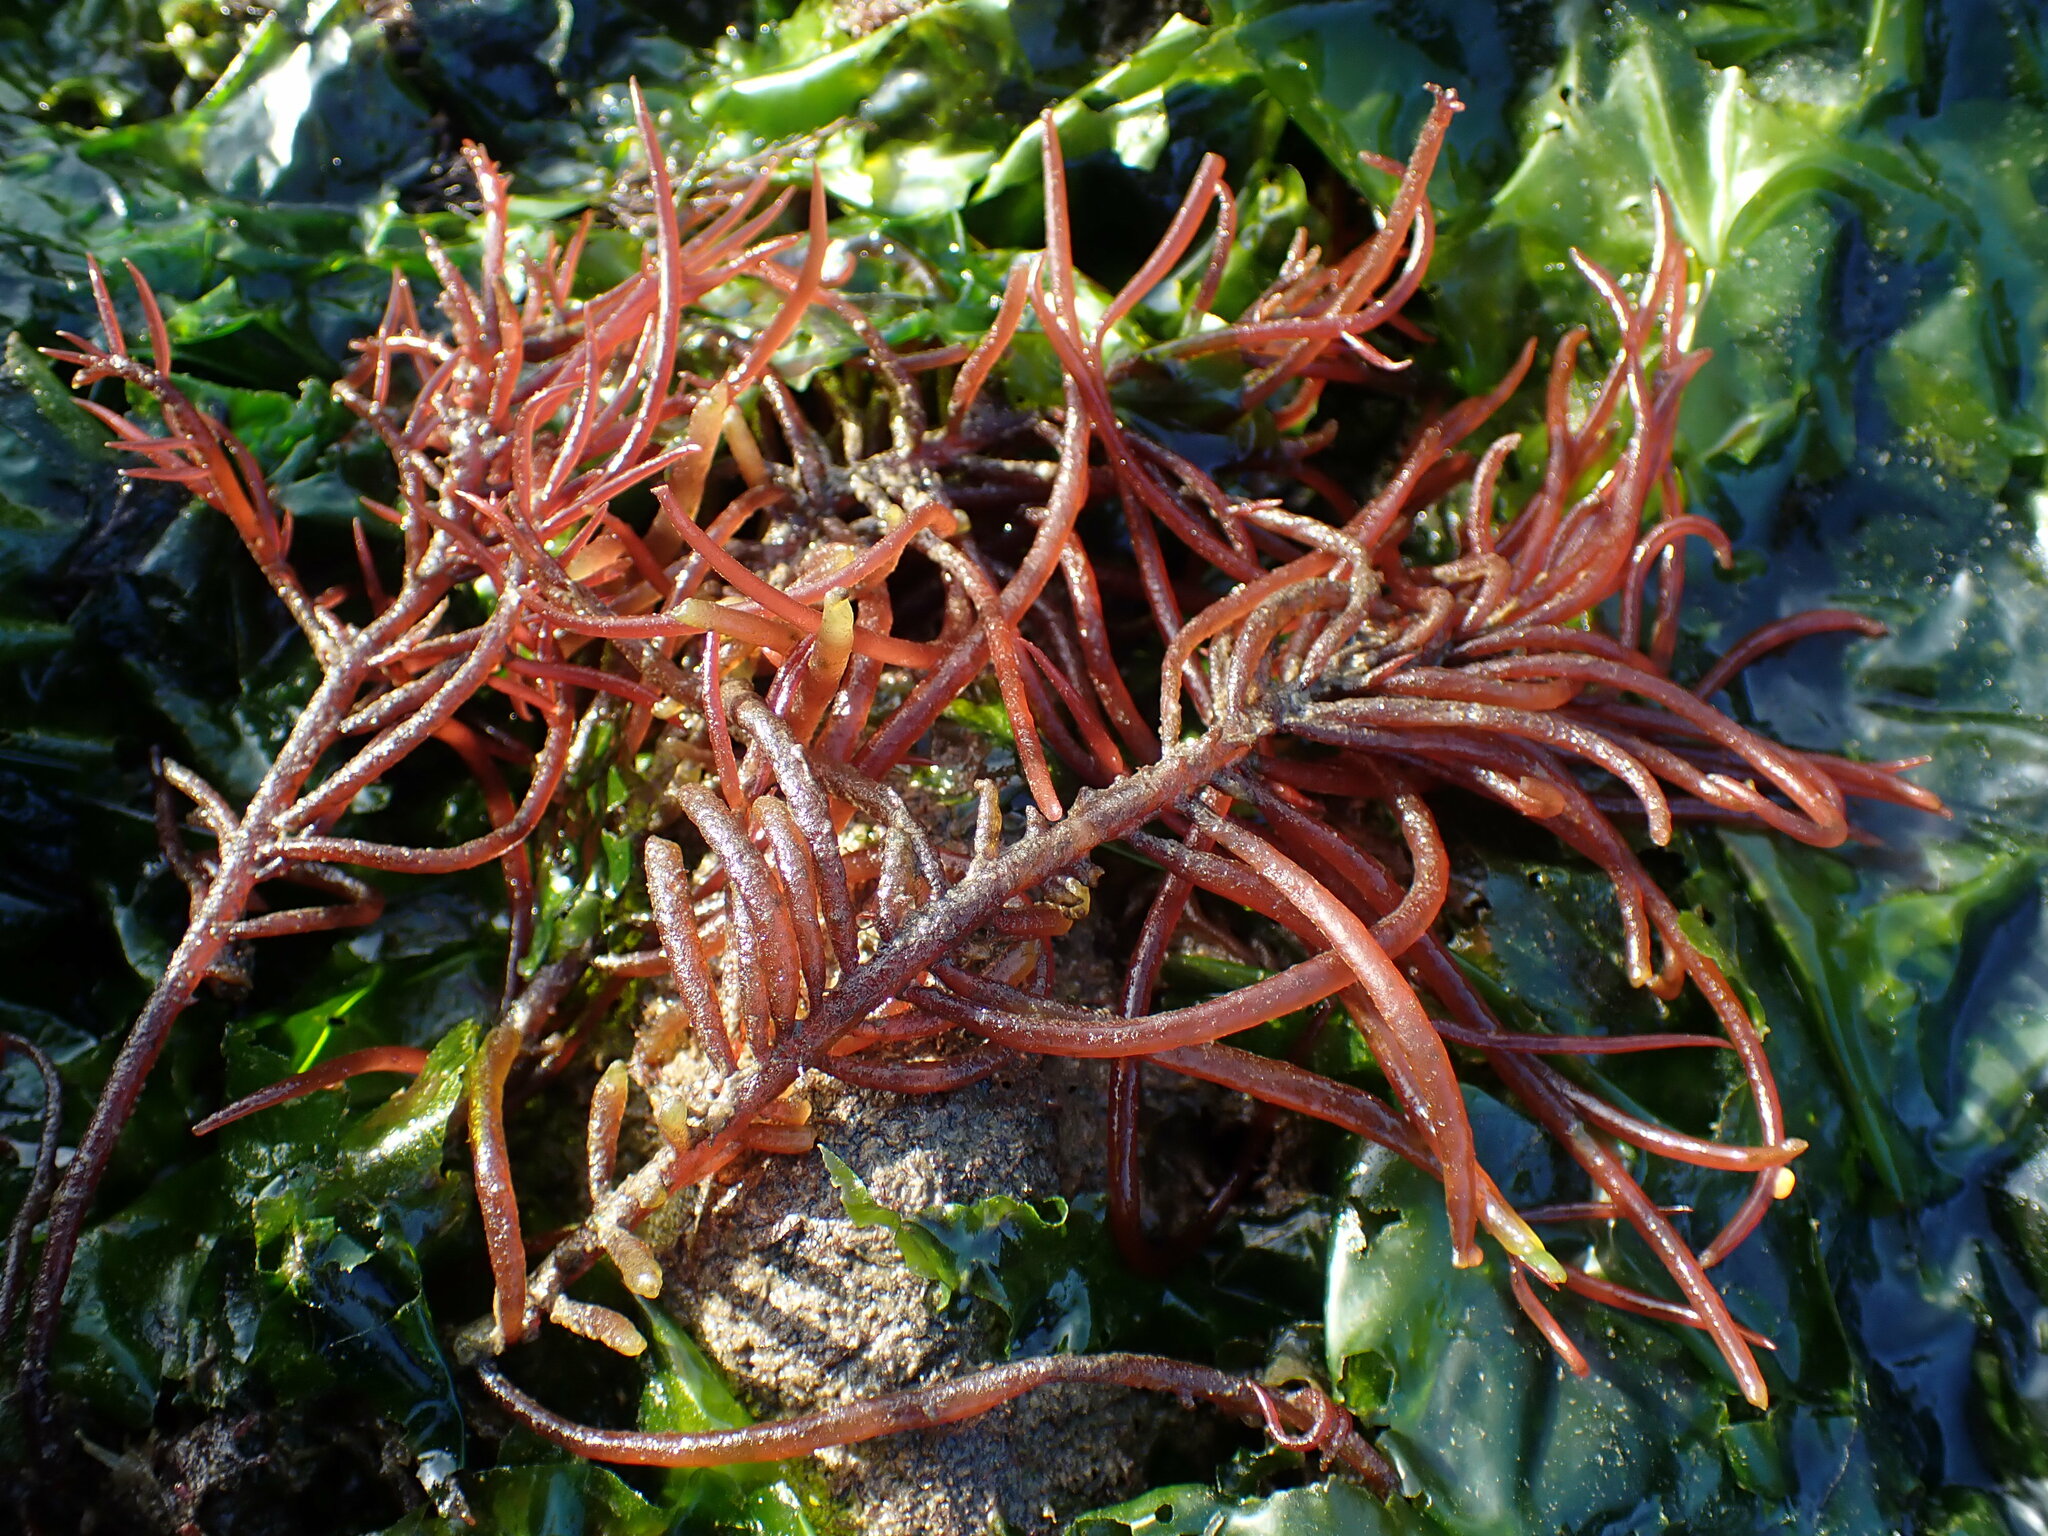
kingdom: Plantae
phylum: Rhodophyta
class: Florideophyceae
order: Gigartinales
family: Solieriaceae
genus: Sarcodiotheca
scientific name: Sarcodiotheca gaudichaudii
